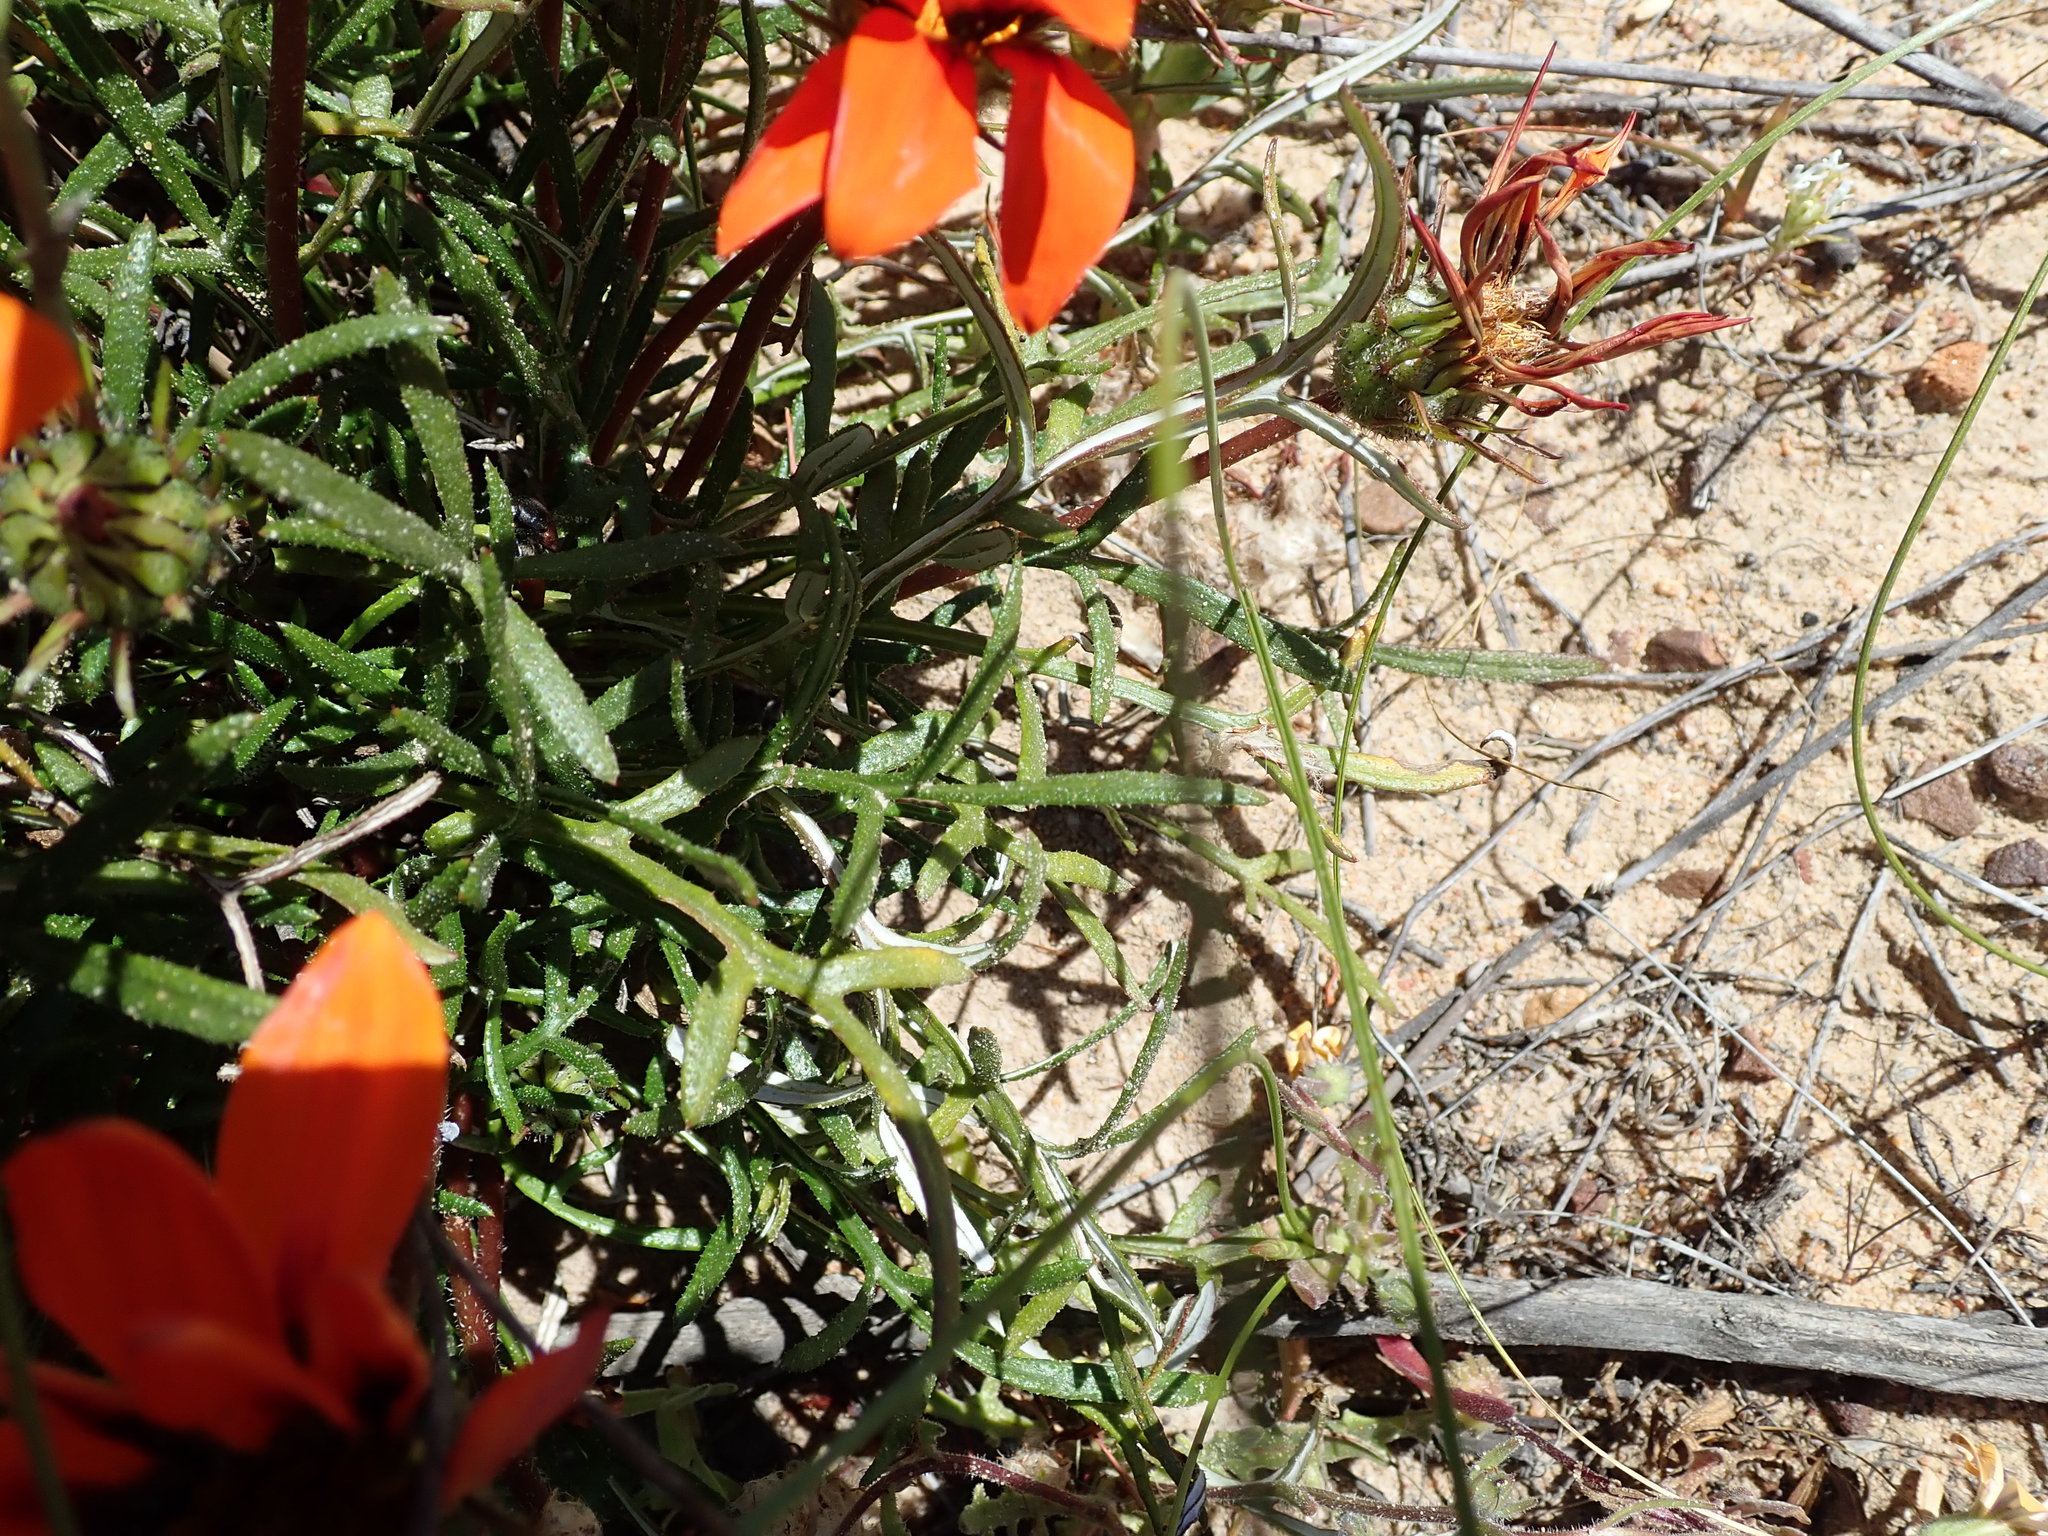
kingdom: Plantae
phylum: Tracheophyta
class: Magnoliopsida
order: Asterales
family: Asteraceae
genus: Gazania
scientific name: Gazania rigida
